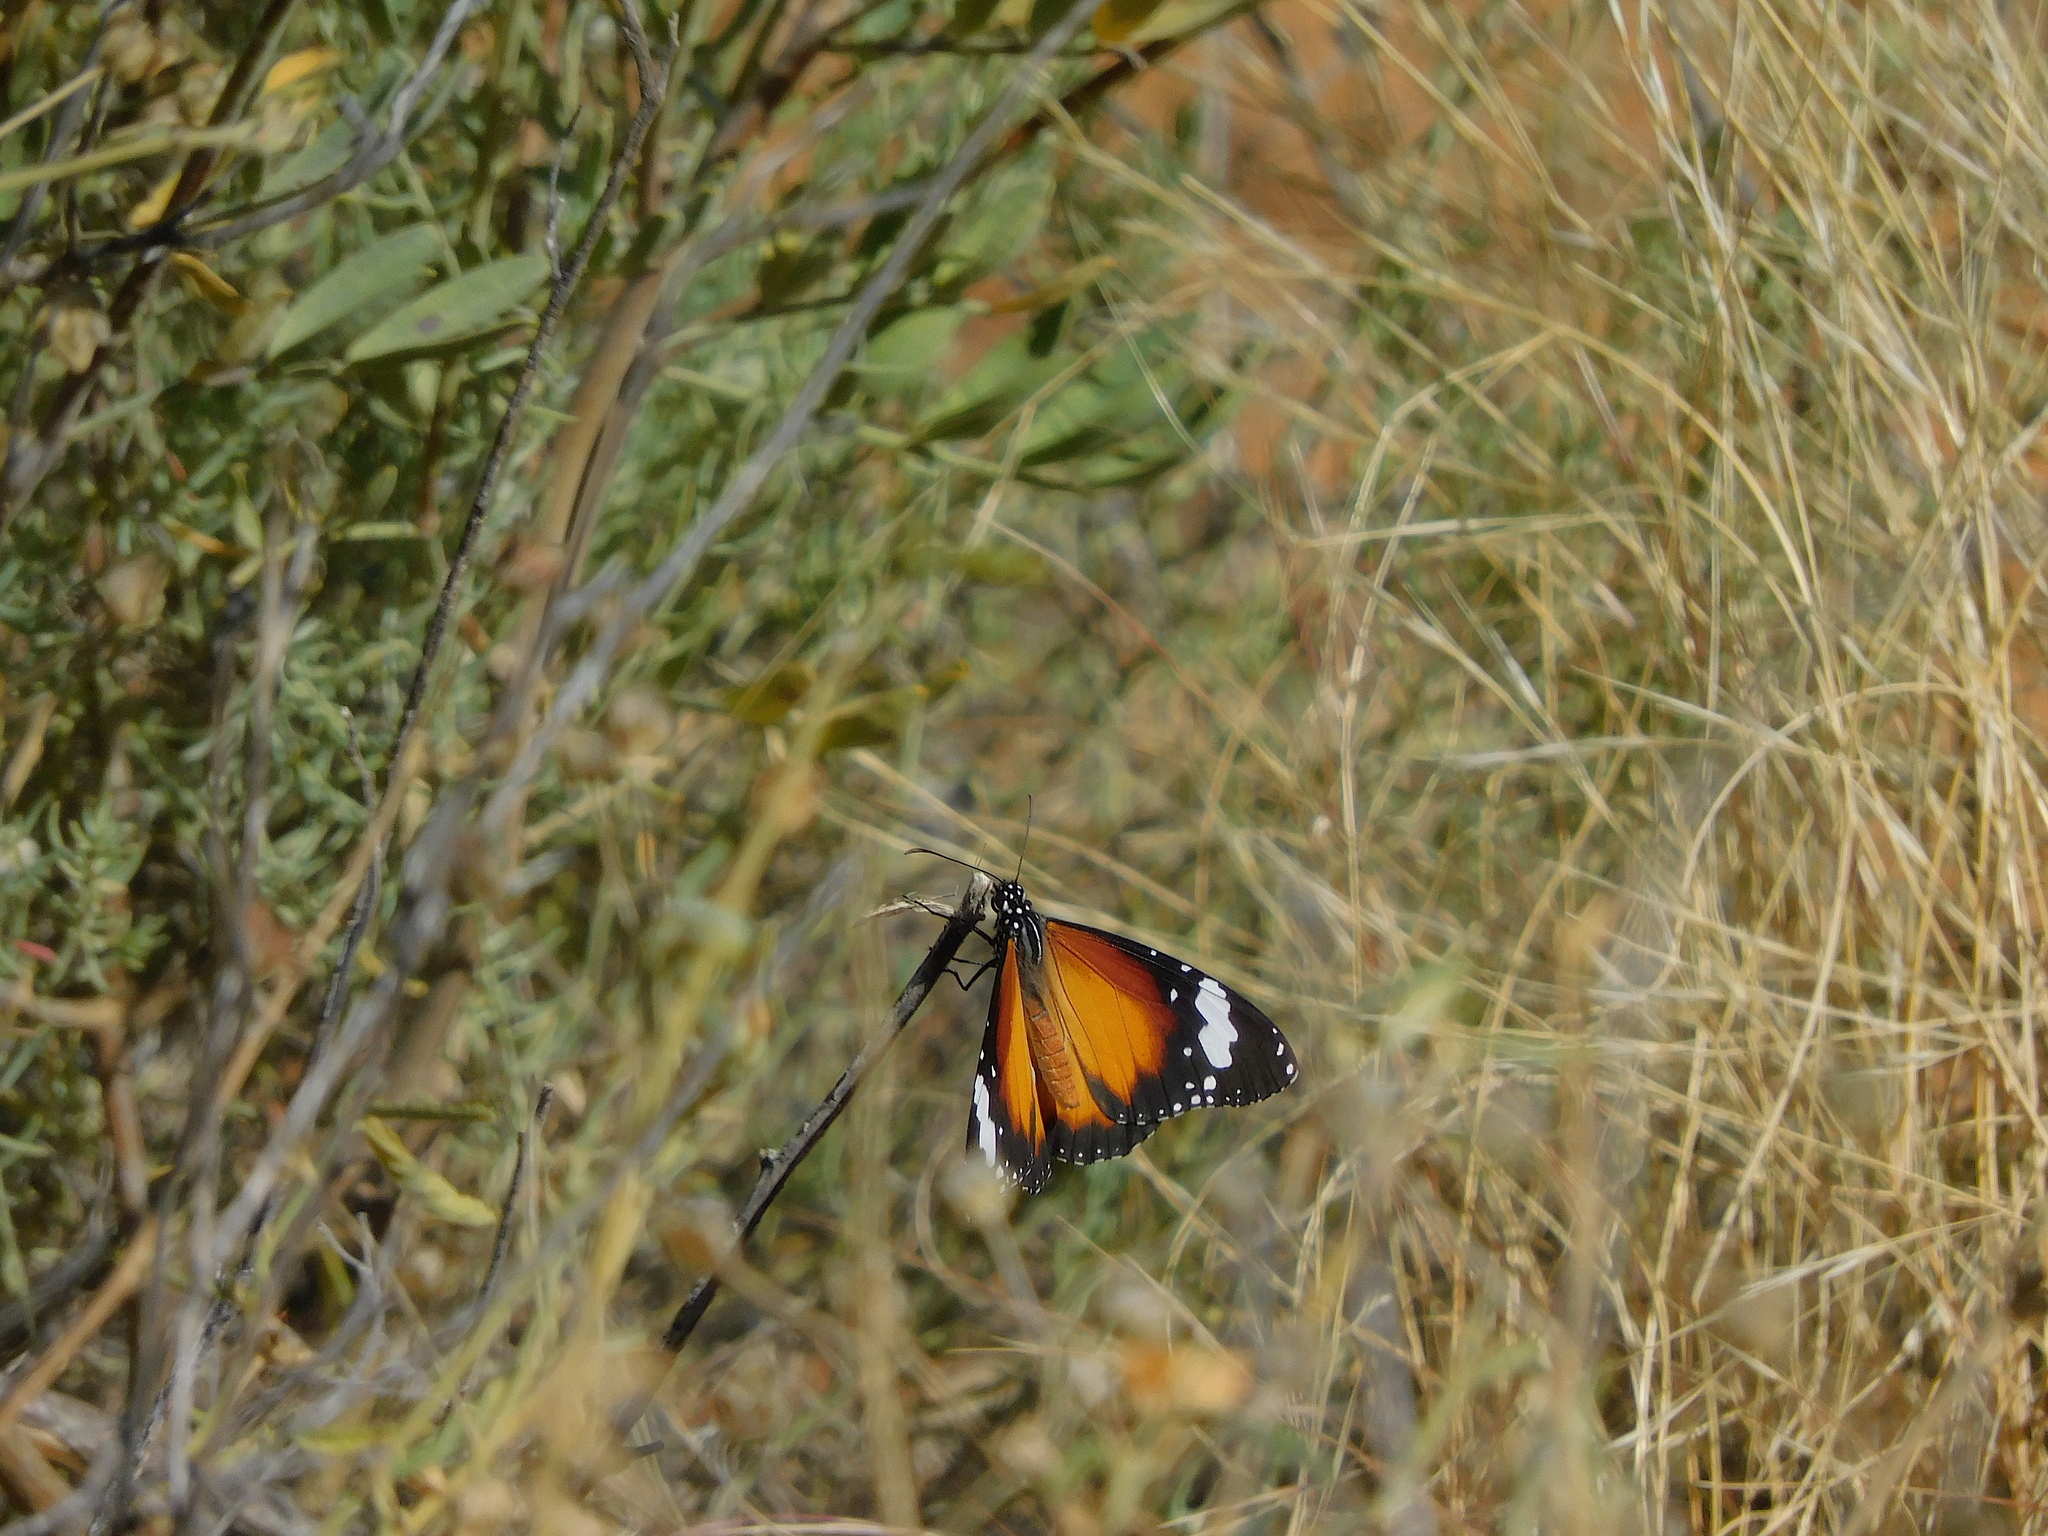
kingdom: Animalia
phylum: Arthropoda
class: Insecta
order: Lepidoptera
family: Nymphalidae
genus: Danaus
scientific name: Danaus chrysippus
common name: Plain tiger
